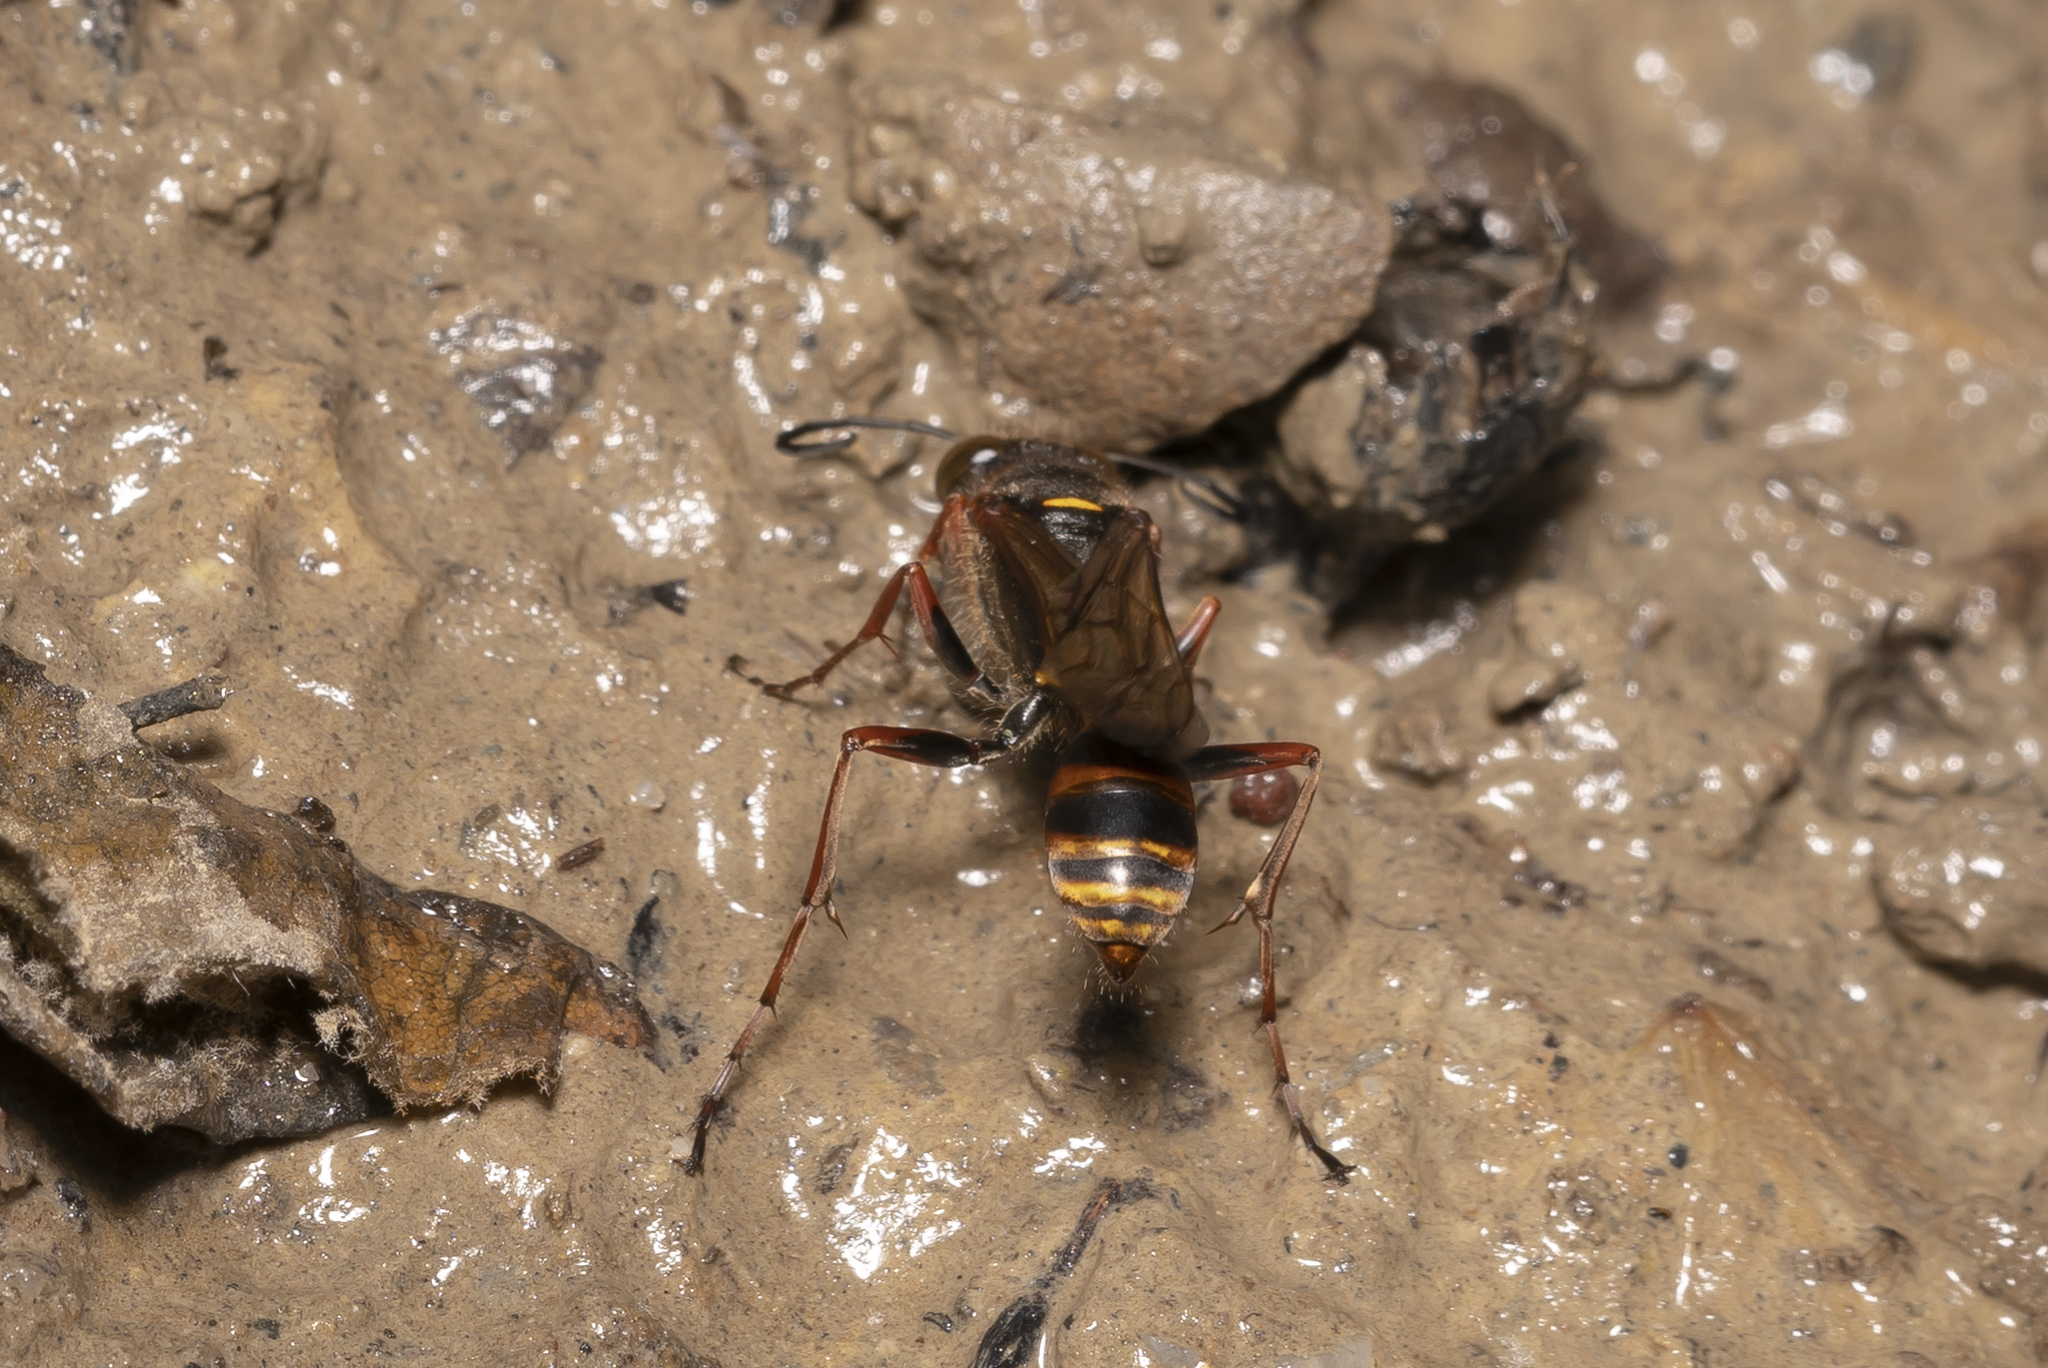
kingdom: Animalia
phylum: Arthropoda
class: Insecta
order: Hymenoptera
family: Sphecidae
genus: Sceliphron
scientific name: Sceliphron curvatum
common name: Pèlopèe
